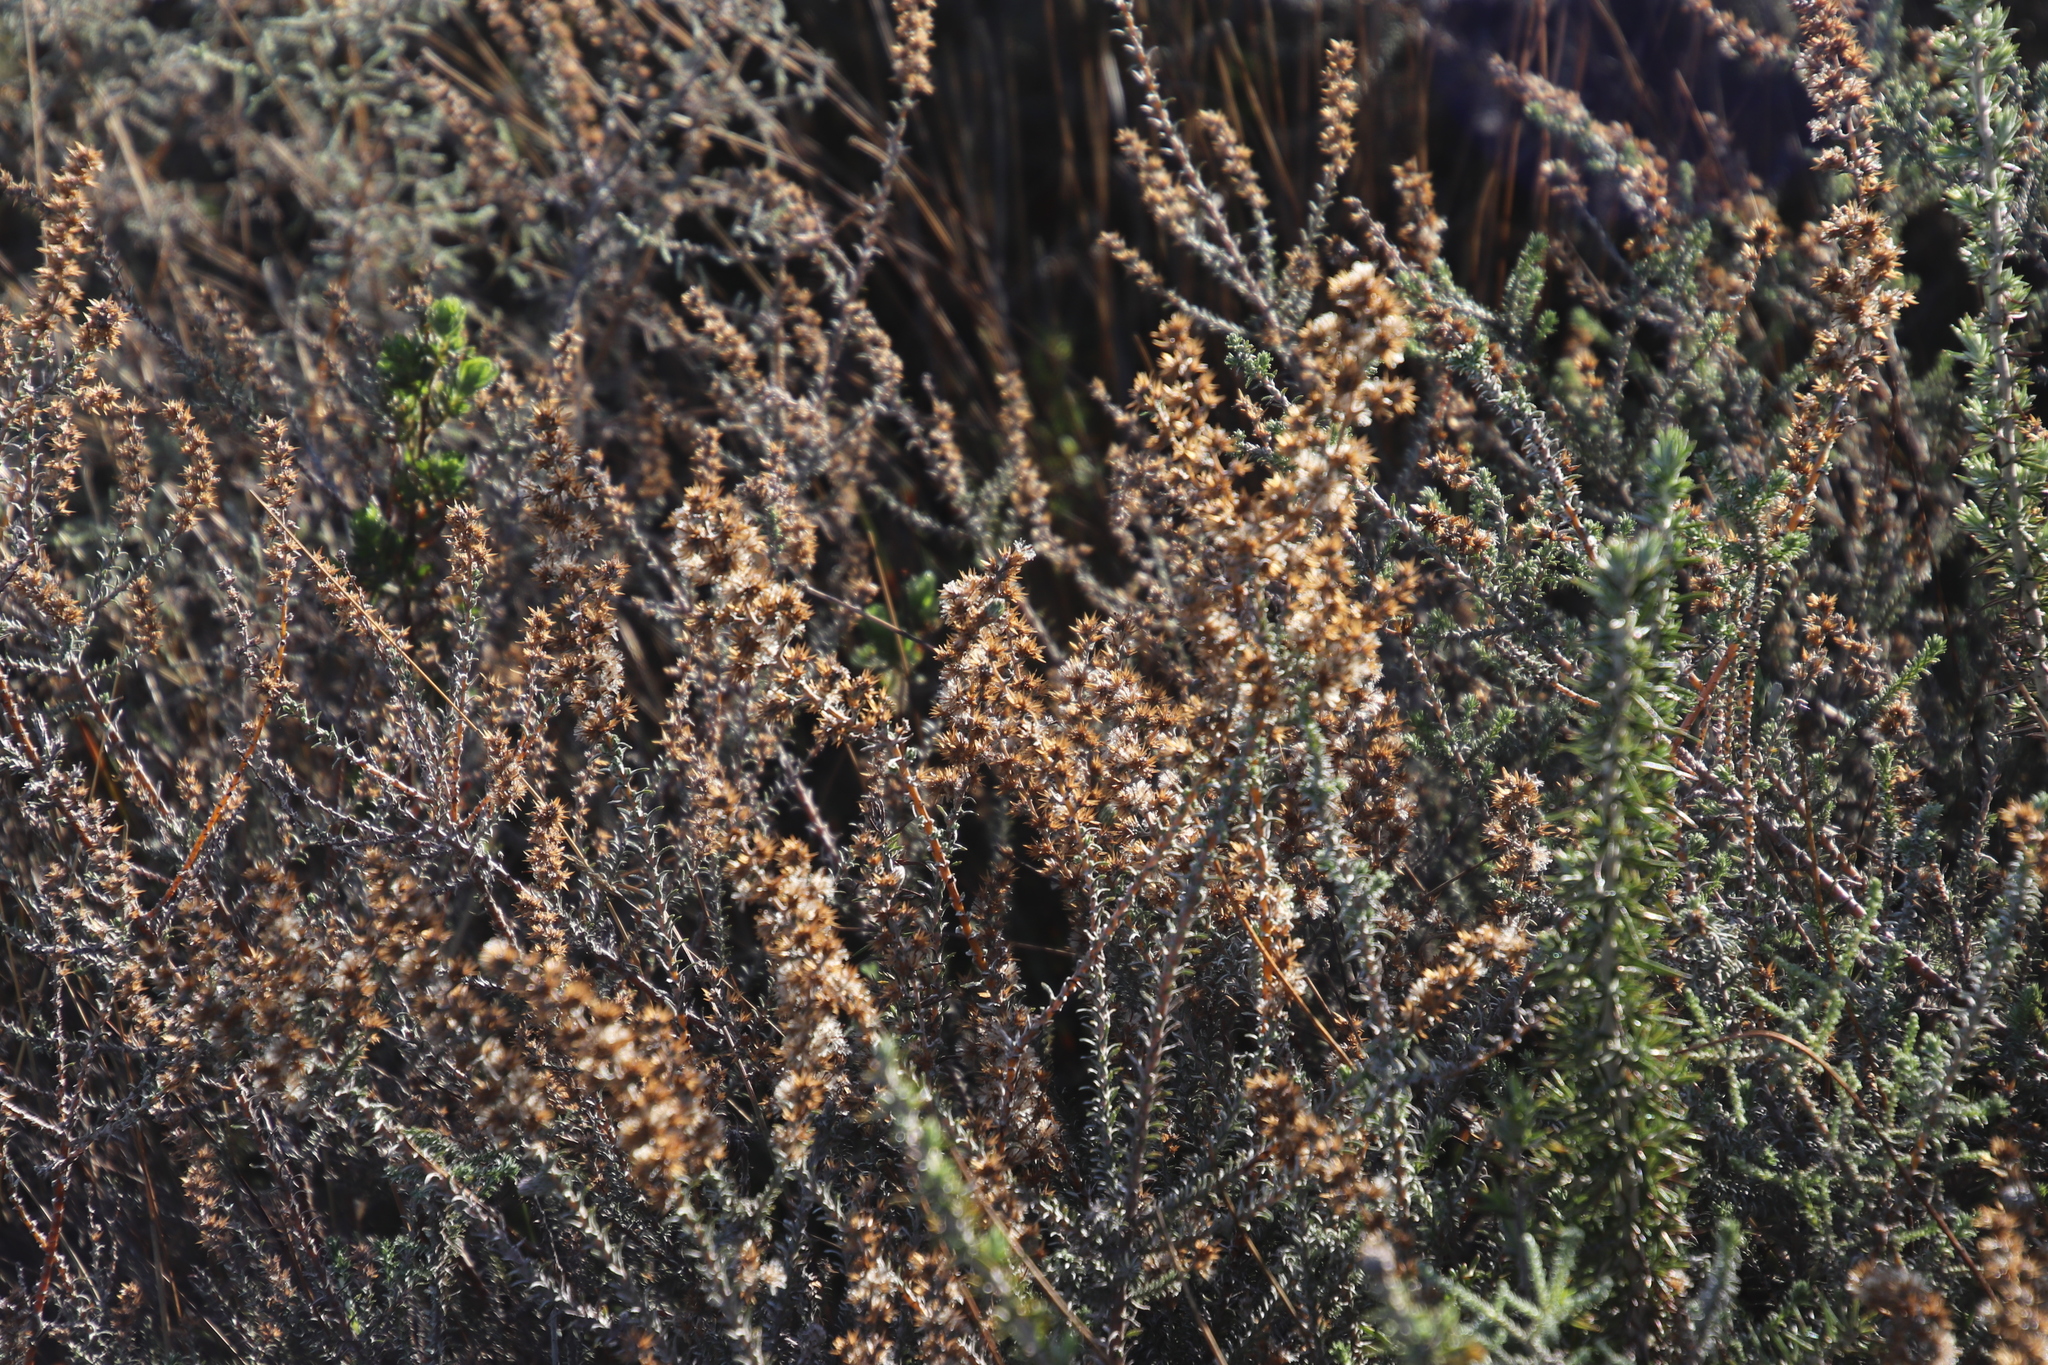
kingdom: Plantae
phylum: Tracheophyta
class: Magnoliopsida
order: Asterales
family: Asteraceae
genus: Seriphium
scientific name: Seriphium cinereum
